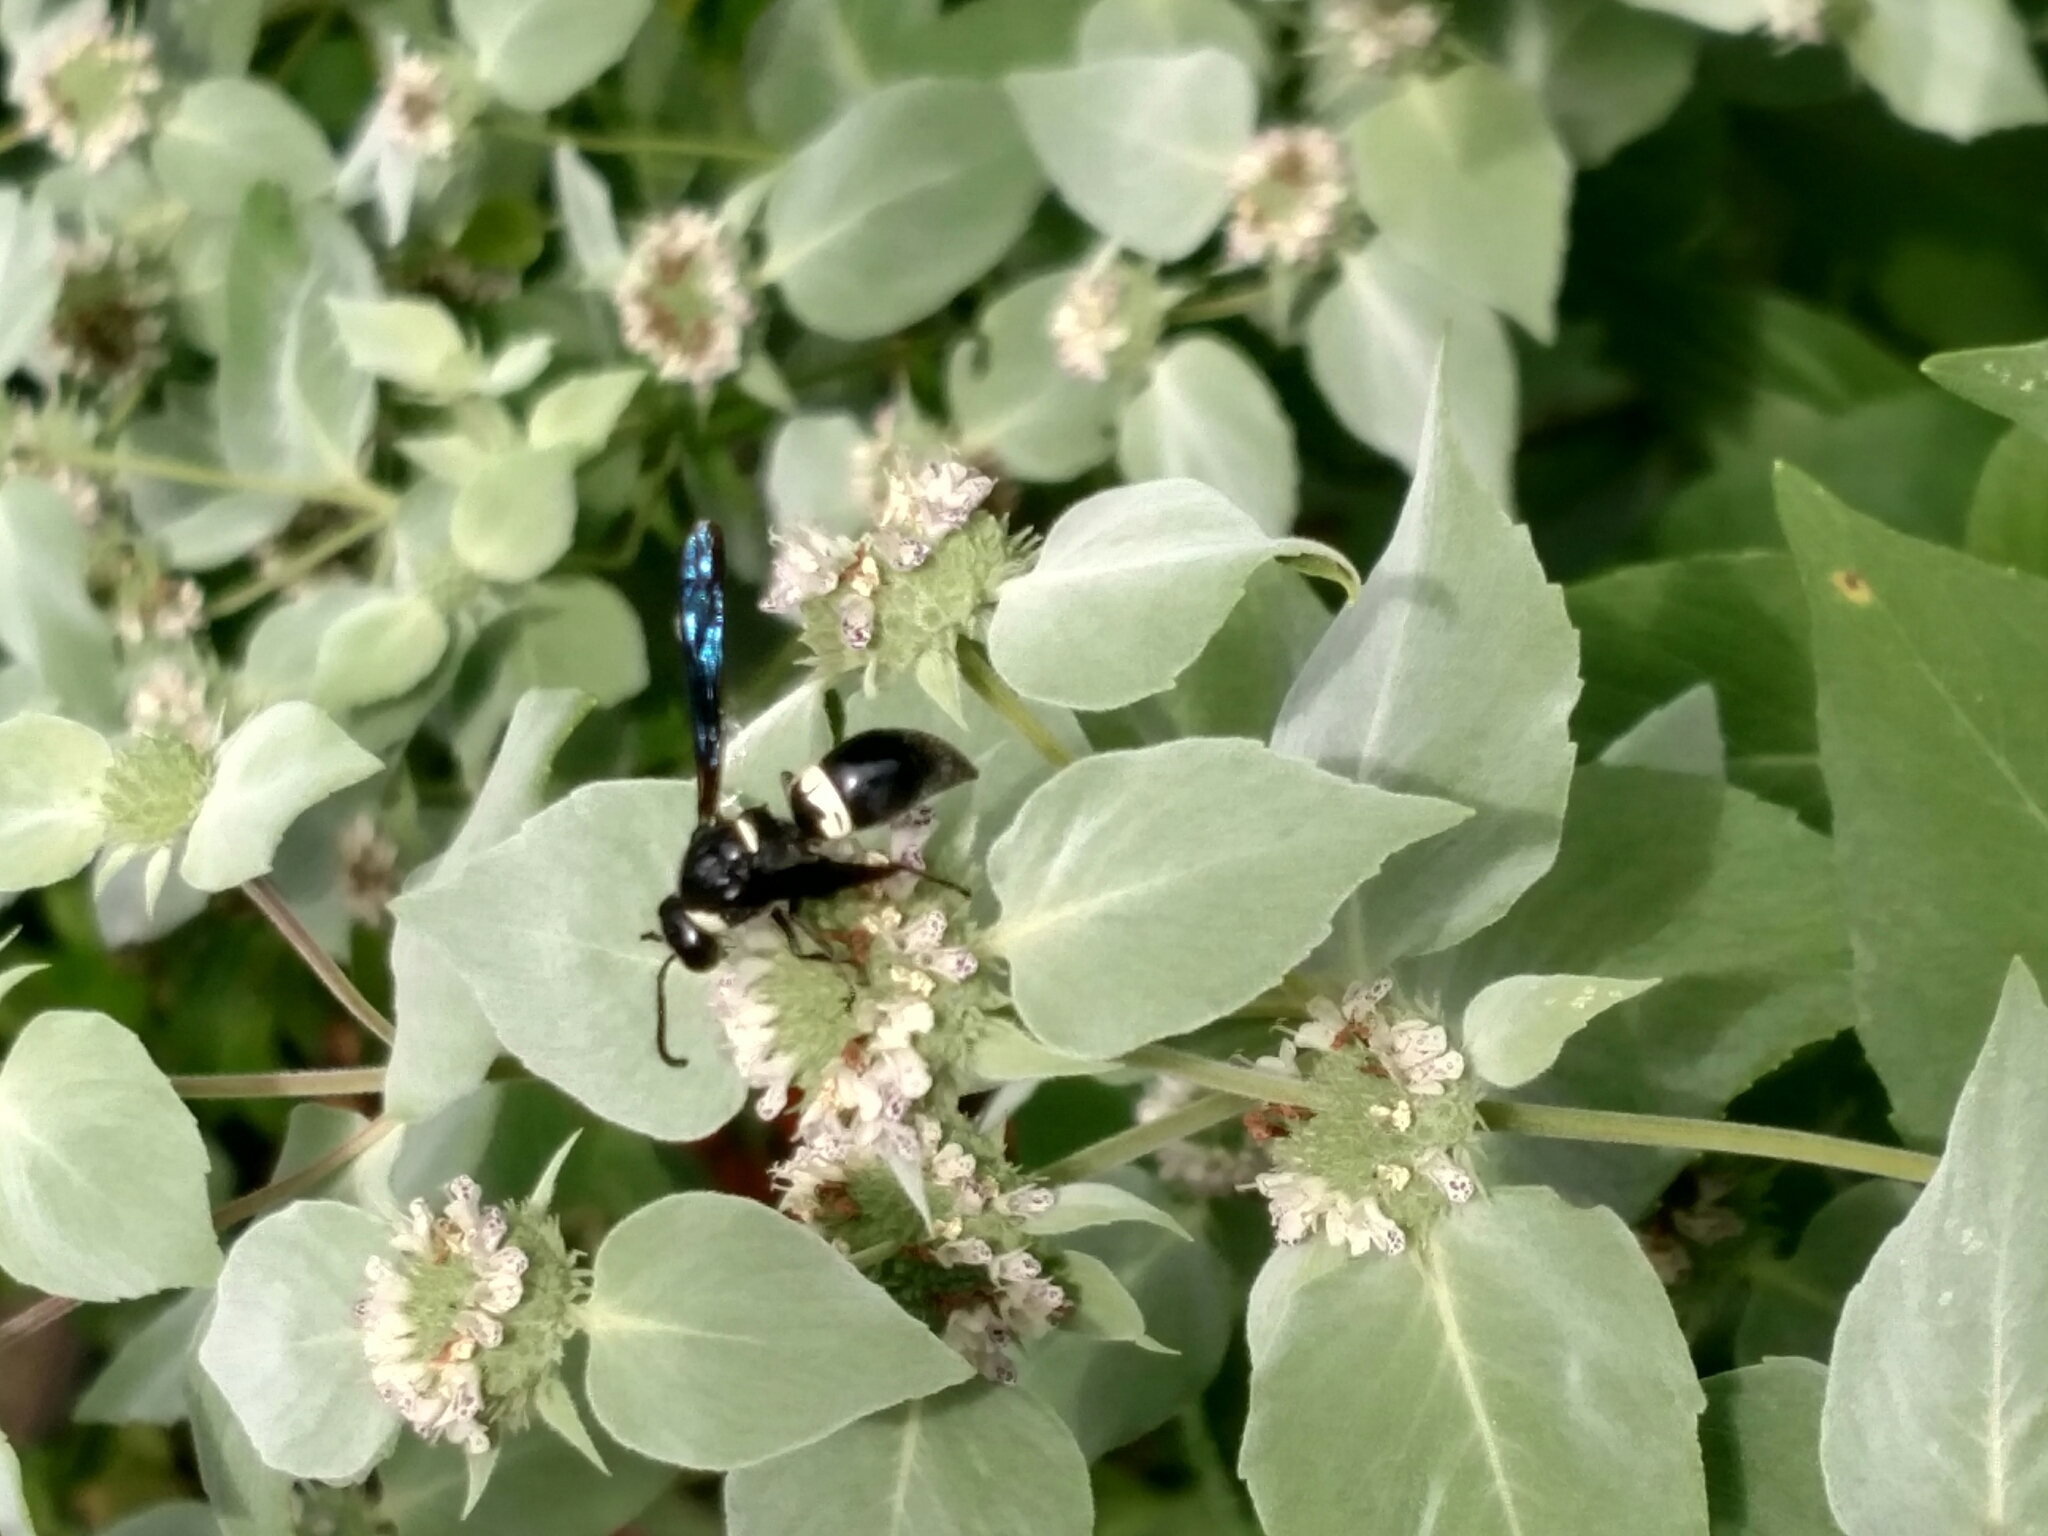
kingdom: Animalia
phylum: Arthropoda
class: Insecta
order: Hymenoptera
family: Eumenidae
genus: Monobia
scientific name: Monobia quadridens
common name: Four-toothed mason wasp
